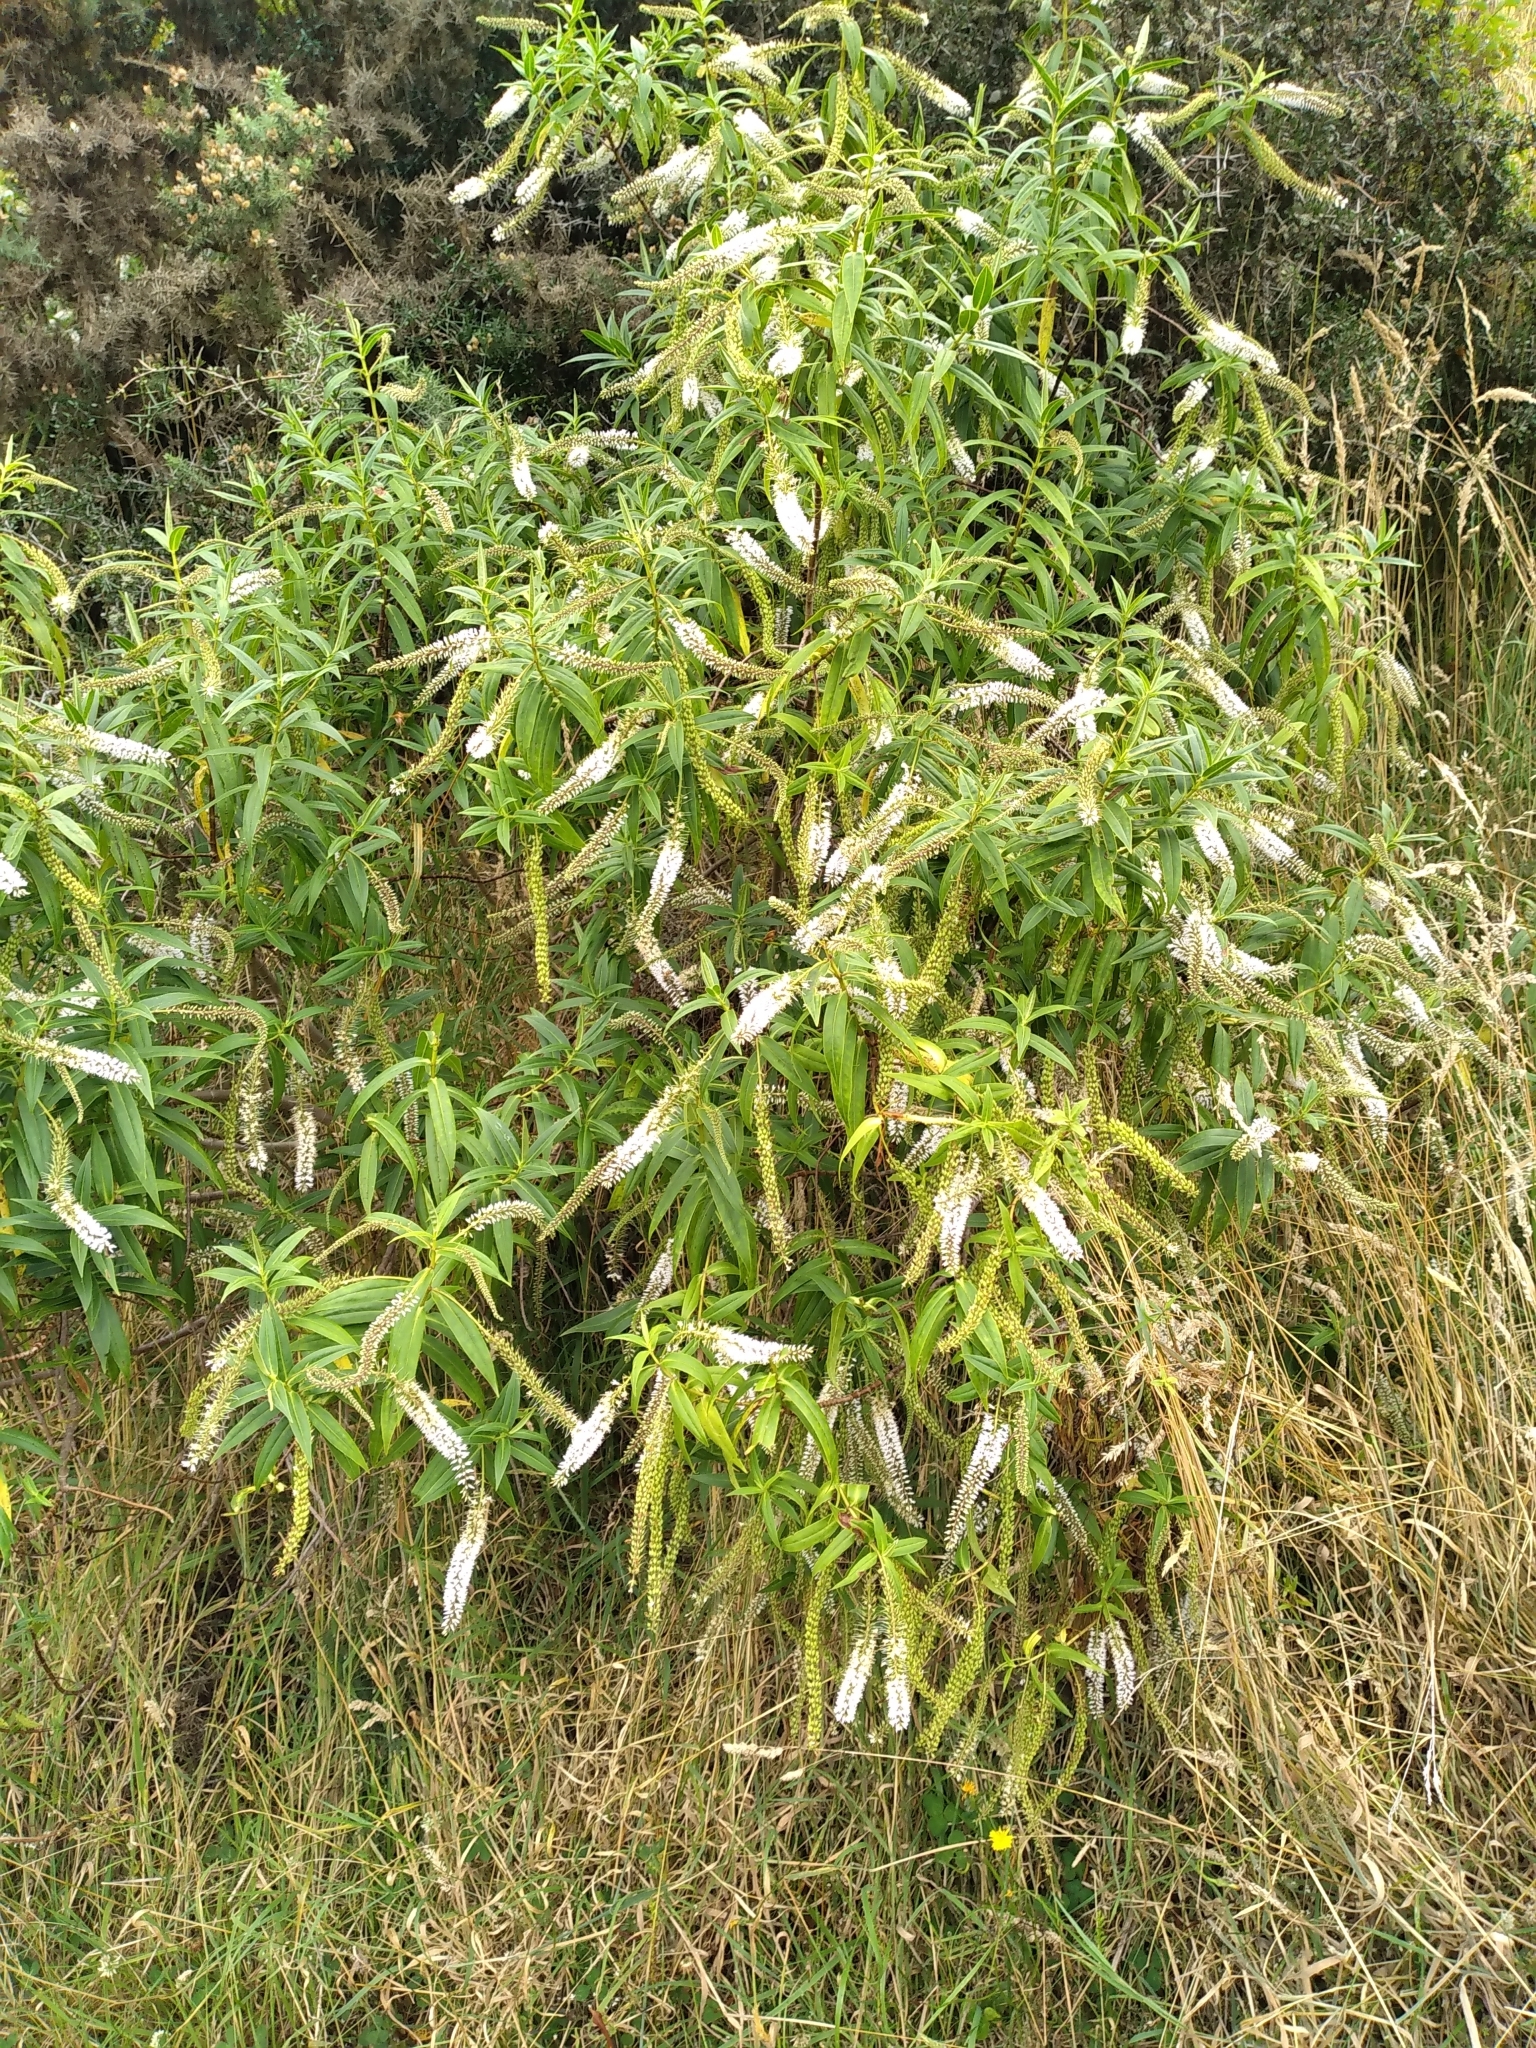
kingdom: Plantae
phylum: Tracheophyta
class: Magnoliopsida
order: Lamiales
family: Plantaginaceae
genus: Veronica
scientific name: Veronica salicifolia
